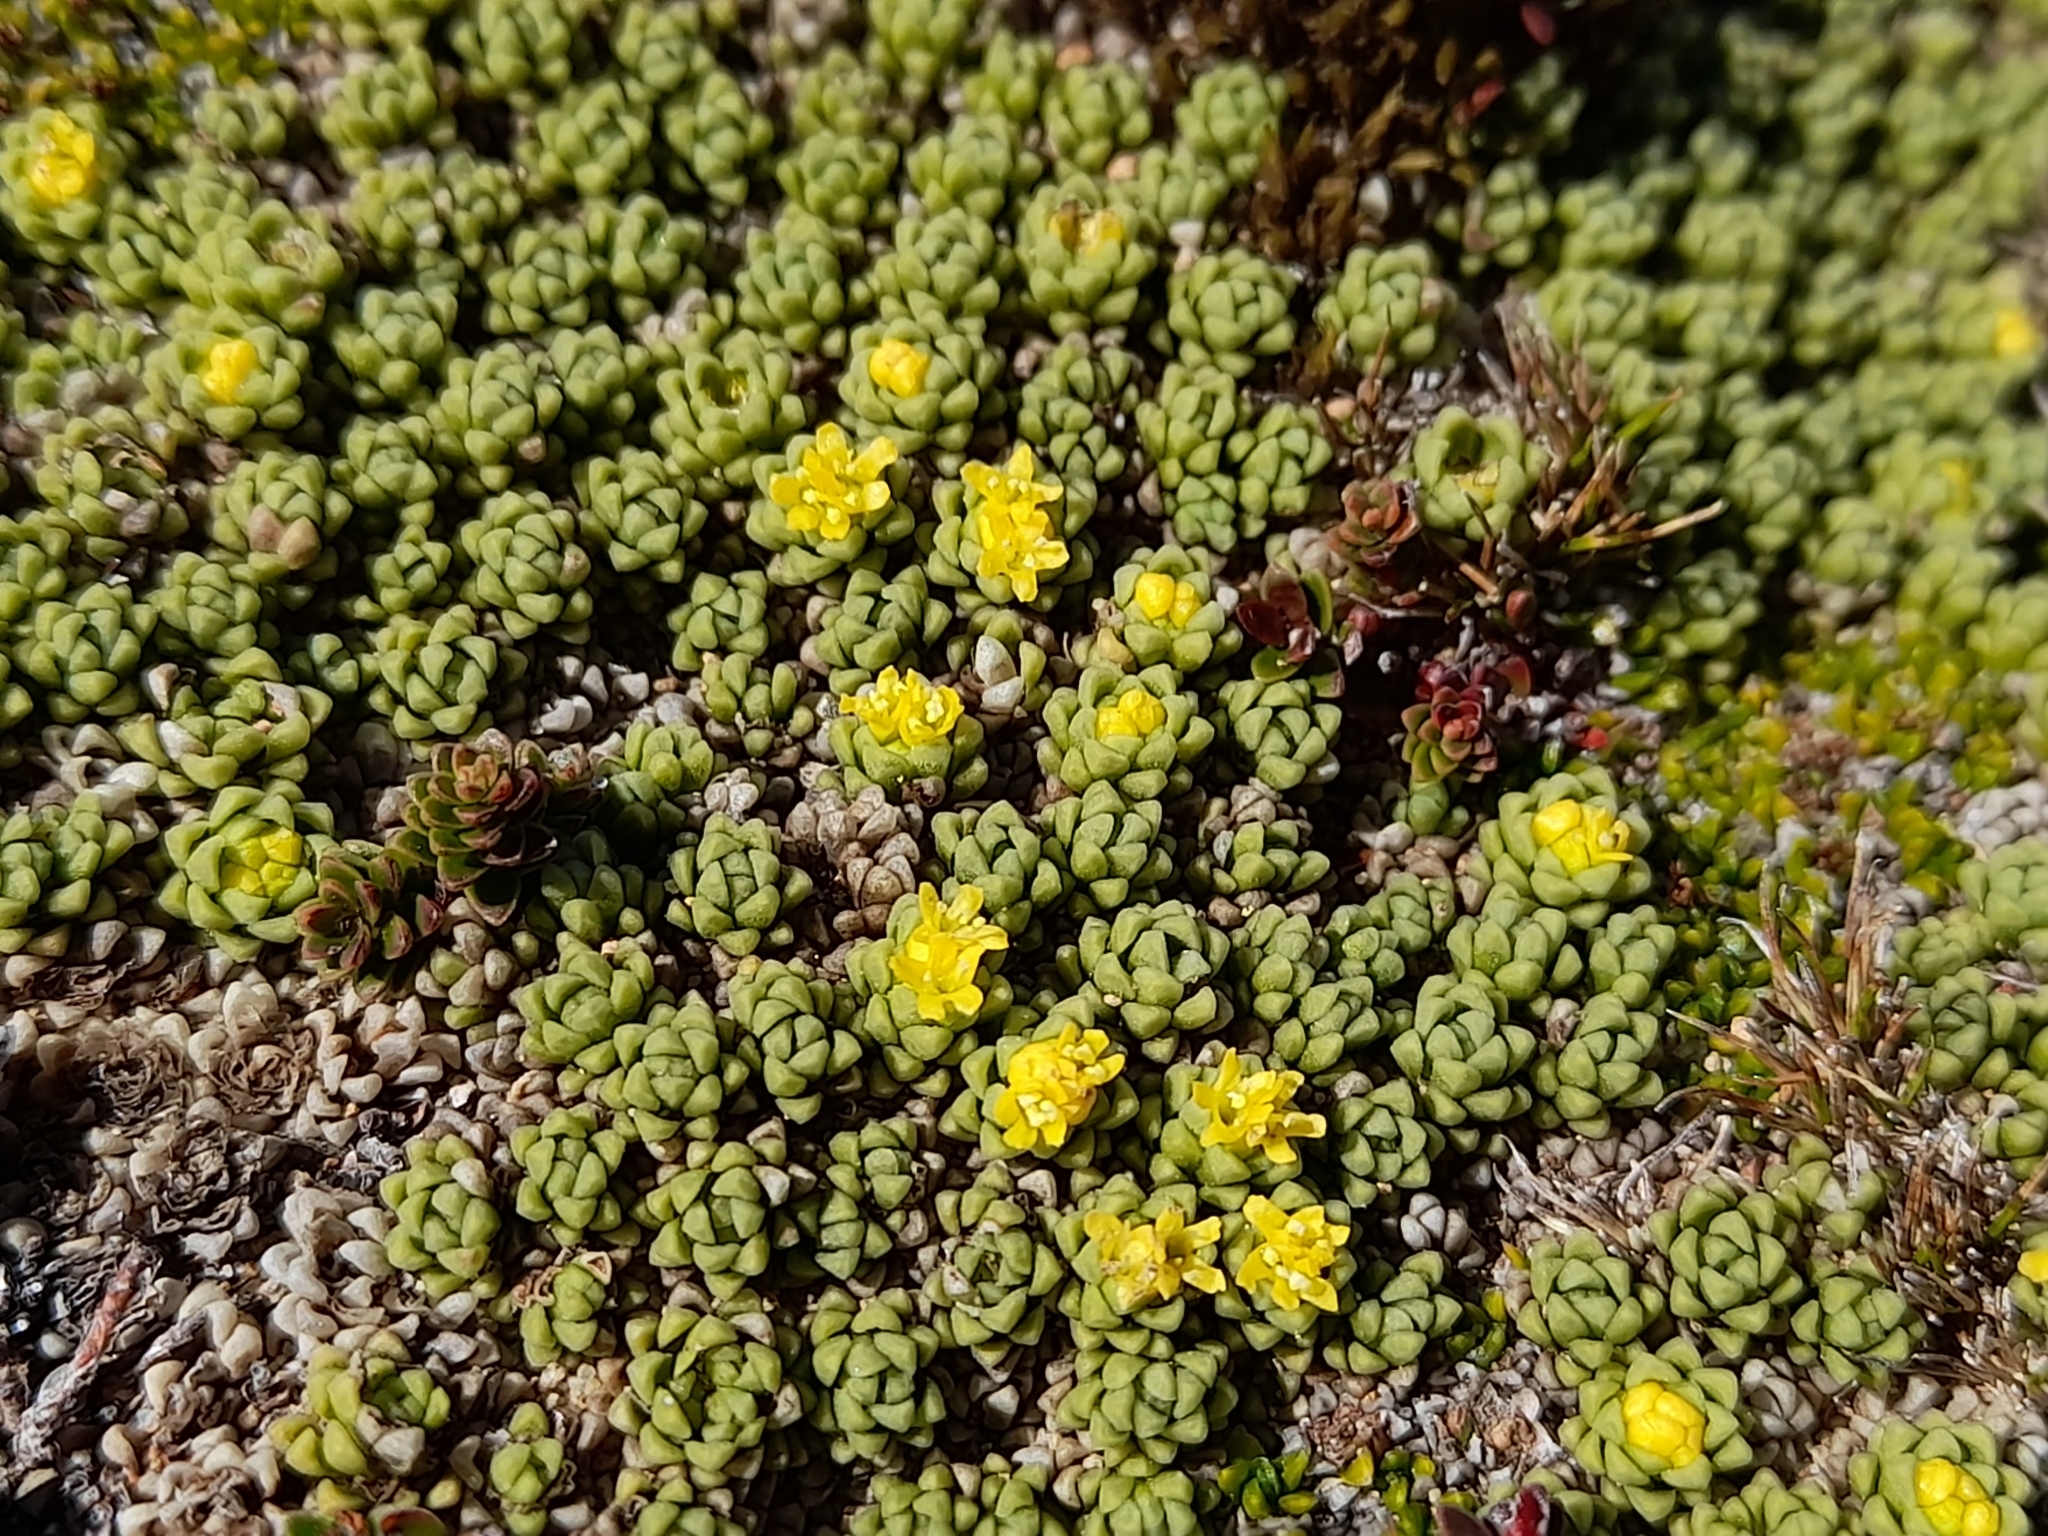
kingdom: Plantae
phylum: Tracheophyta
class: Magnoliopsida
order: Dipsacales
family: Caprifoliaceae
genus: Valeriana
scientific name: Valeriana sedifolia
